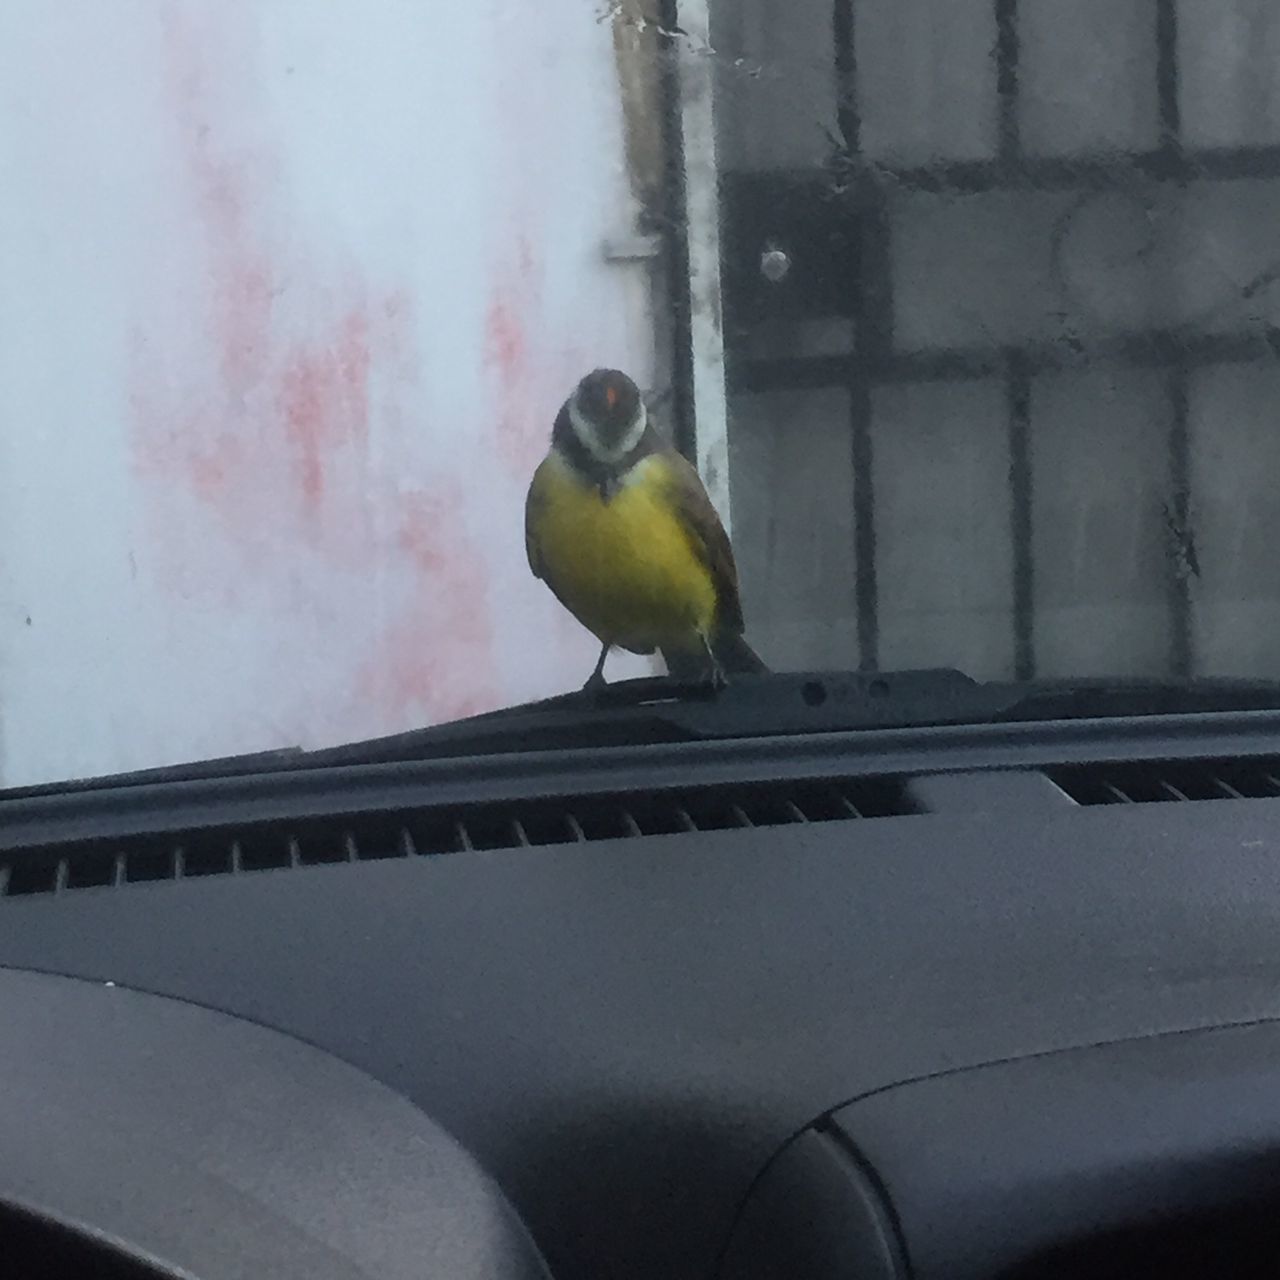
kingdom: Animalia
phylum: Chordata
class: Aves
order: Passeriformes
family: Tyrannidae
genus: Myiozetetes
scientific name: Myiozetetes similis
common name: Social flycatcher
